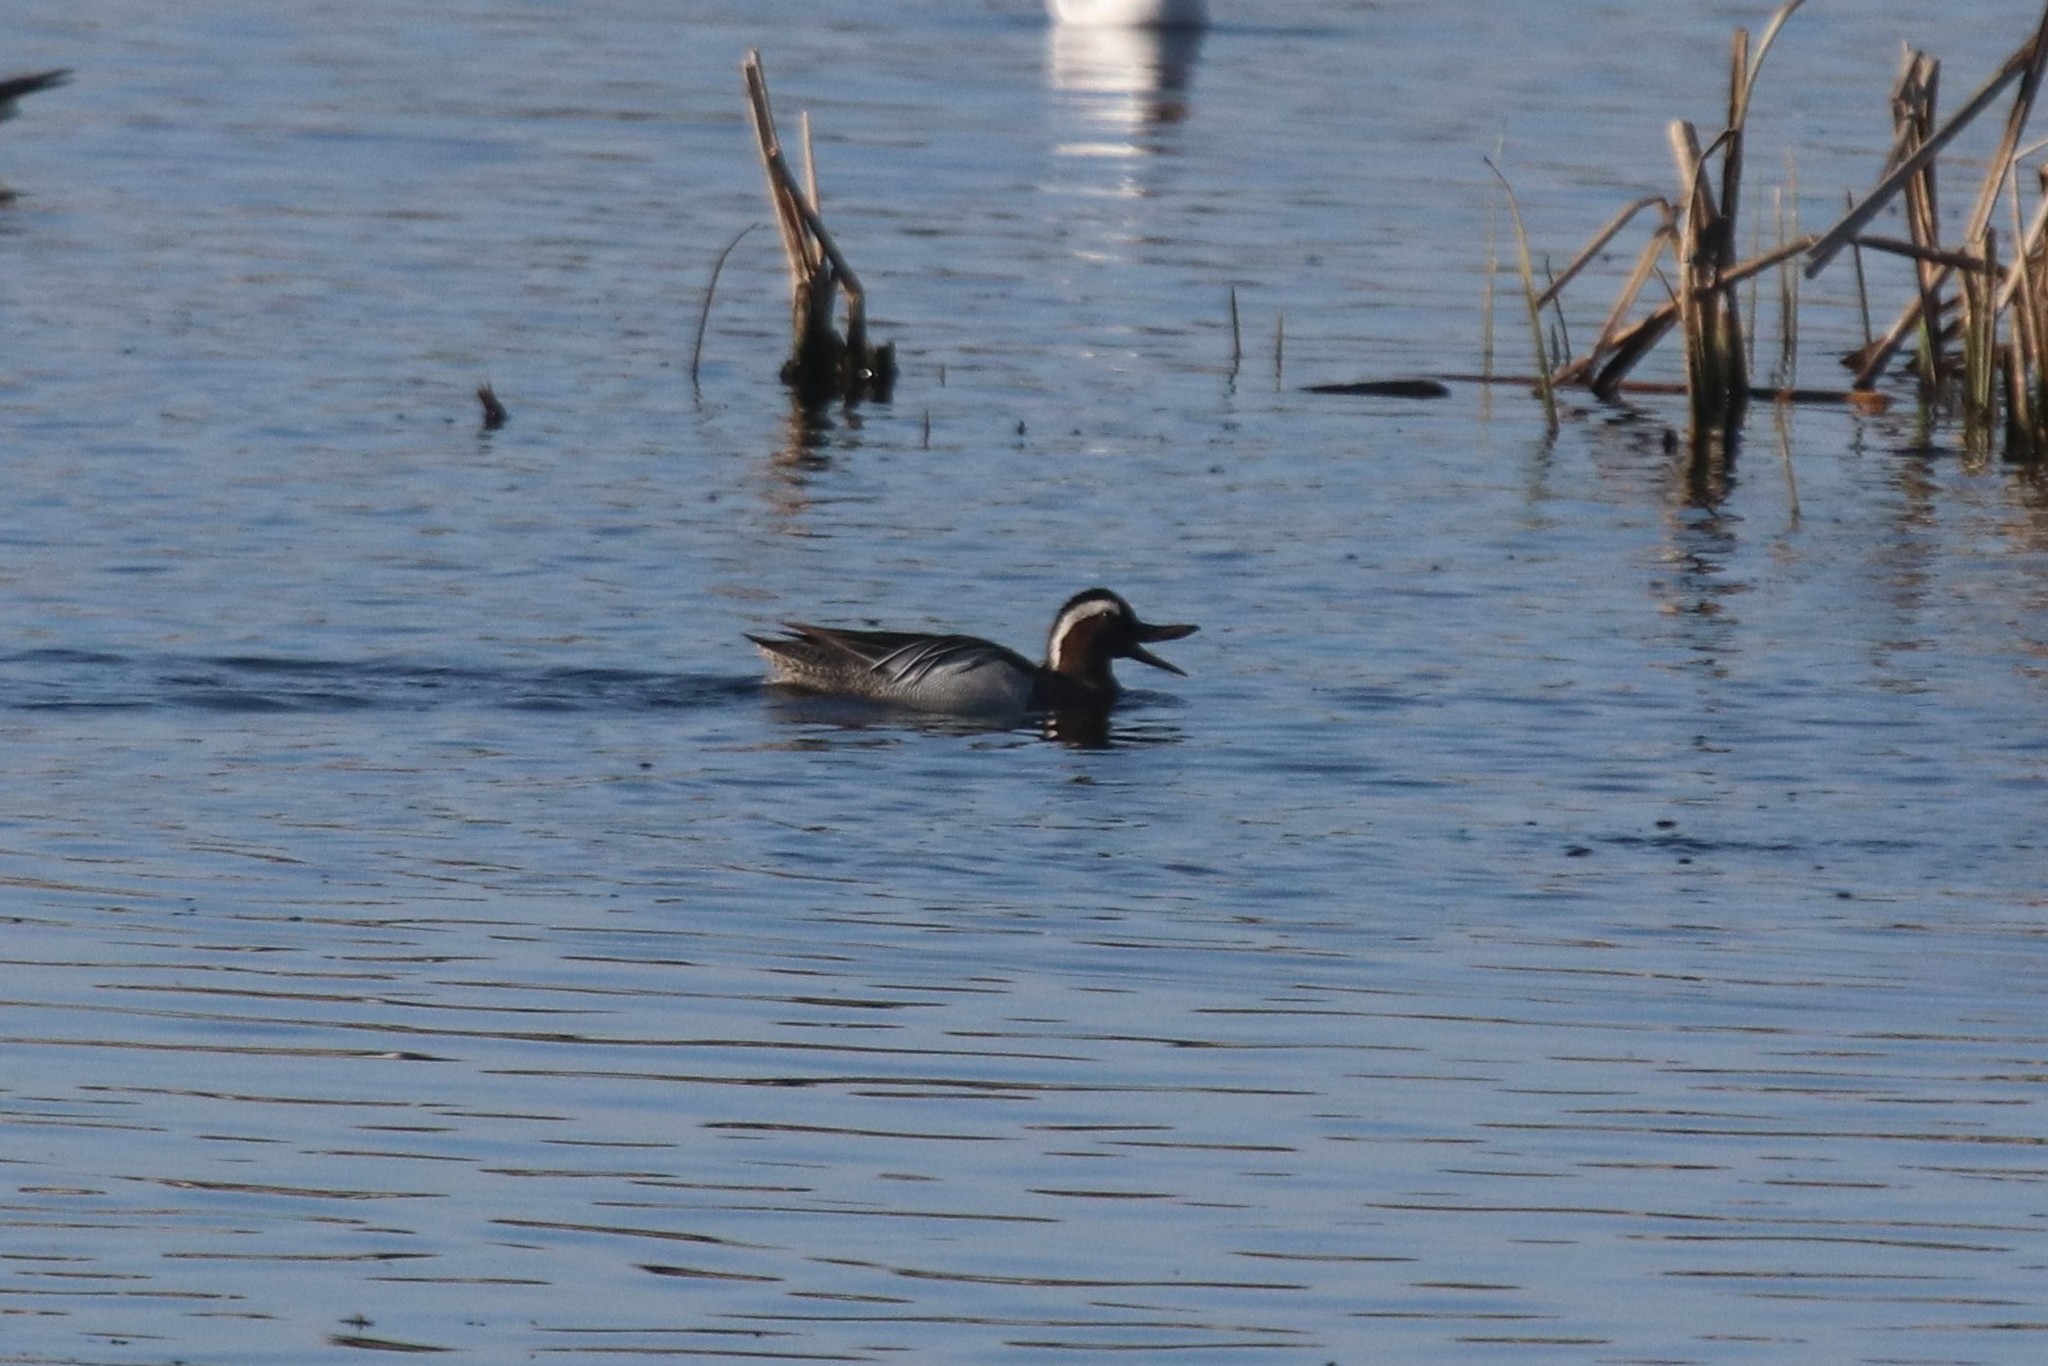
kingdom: Animalia
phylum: Chordata
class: Aves
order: Anseriformes
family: Anatidae
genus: Spatula
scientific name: Spatula querquedula
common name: Garganey
